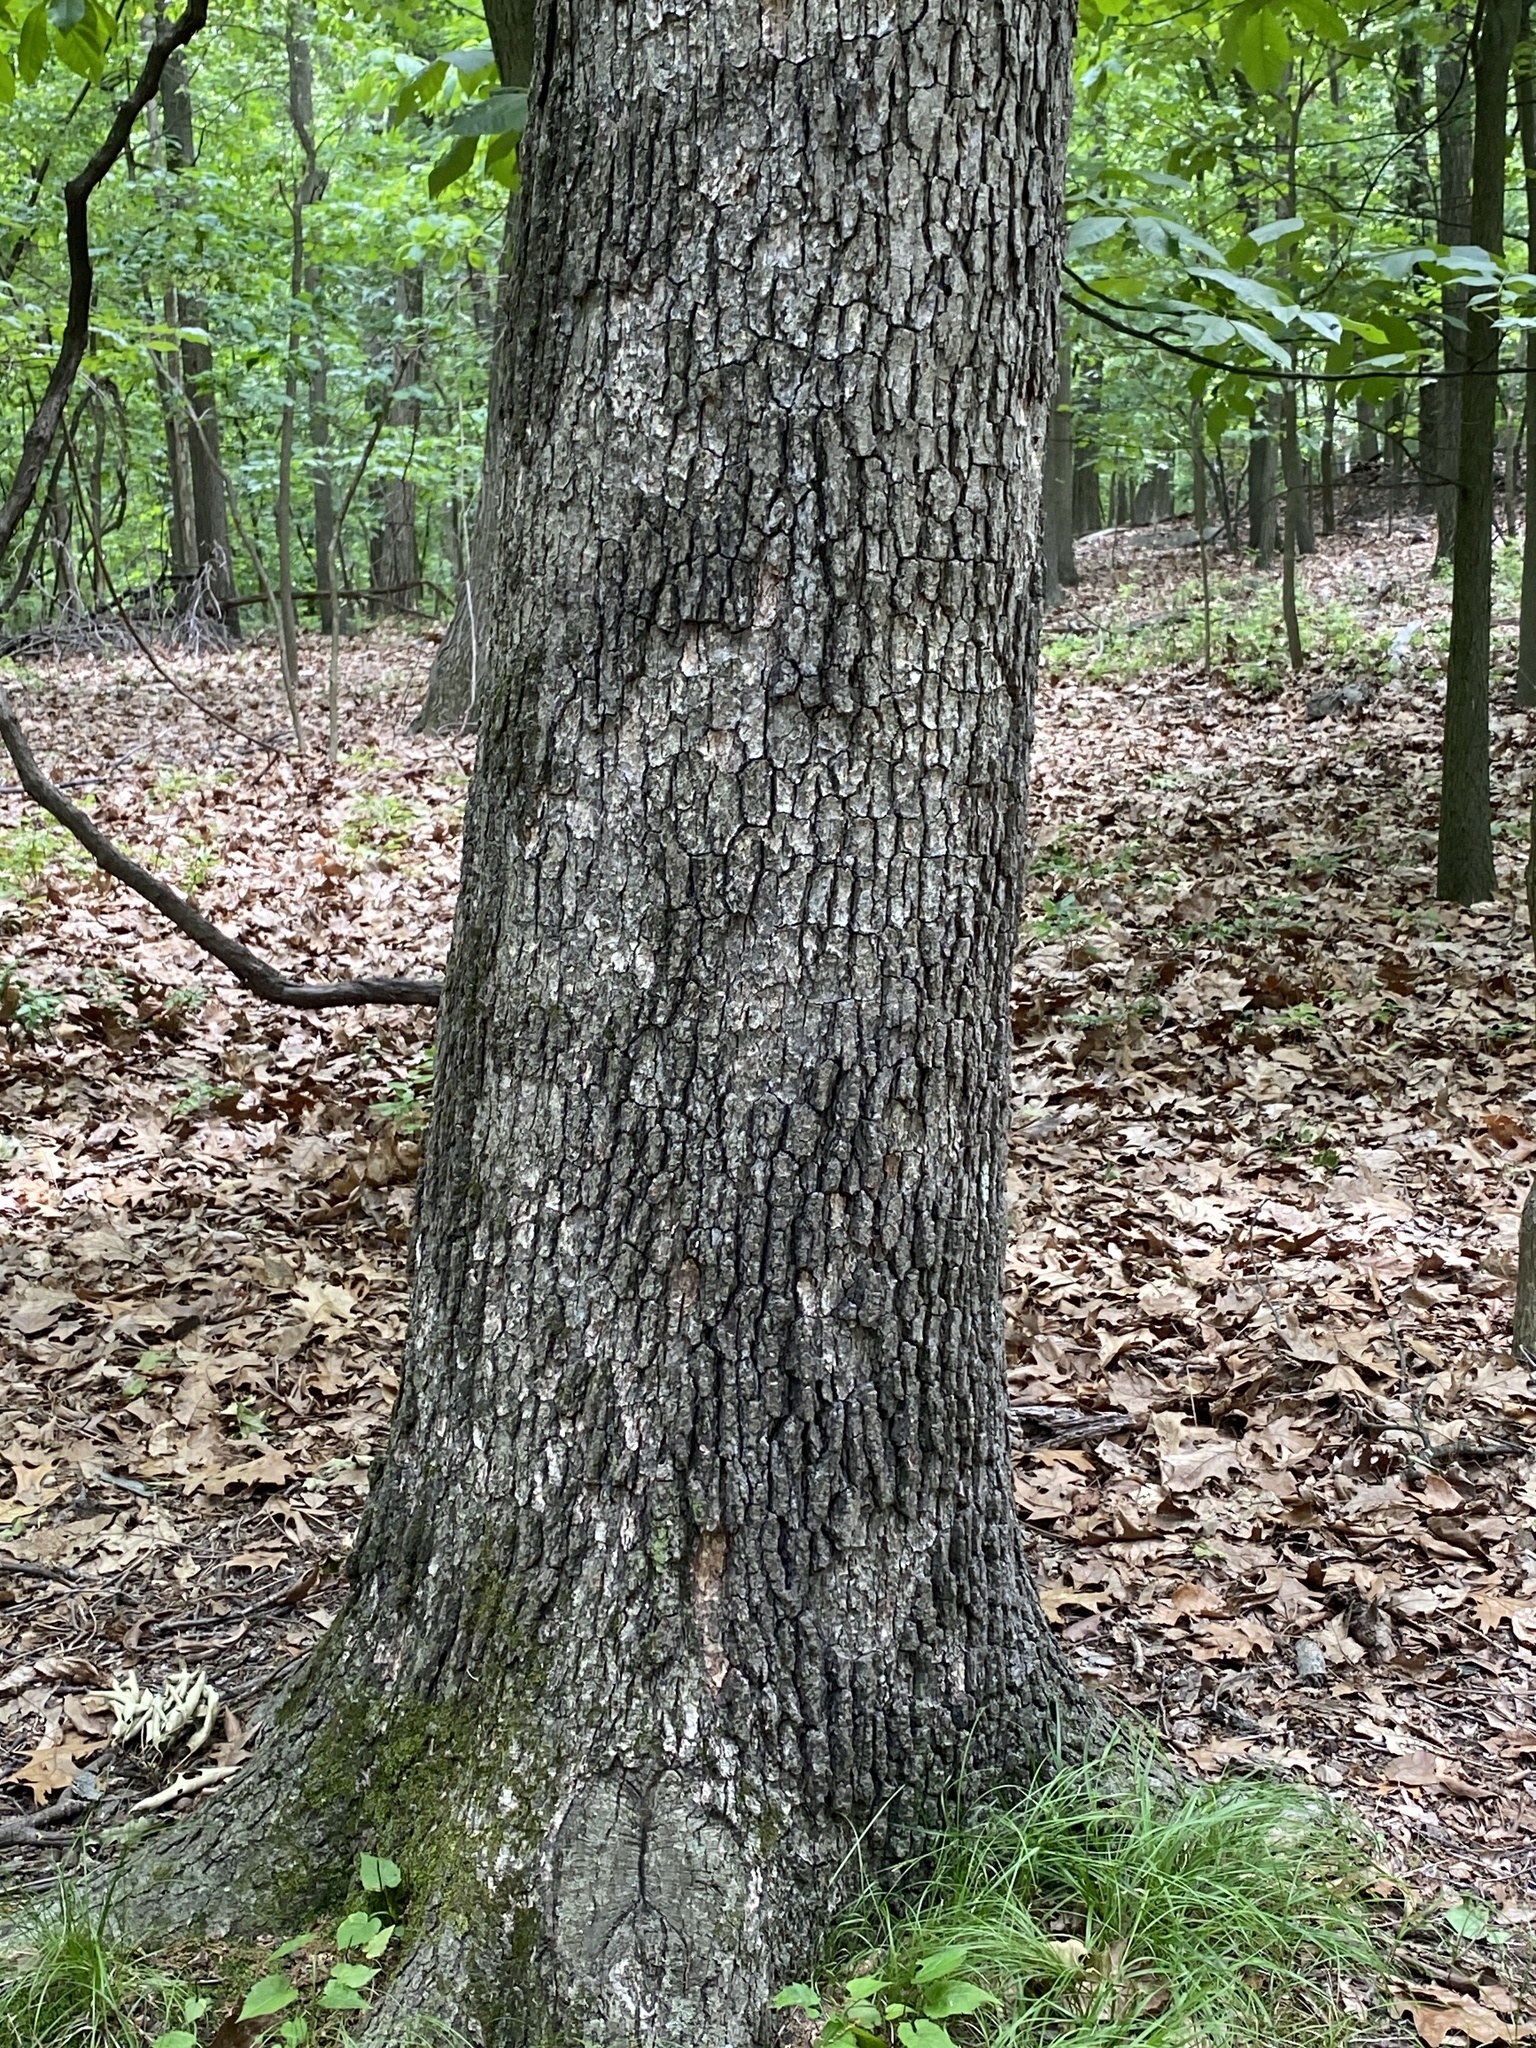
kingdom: Fungi
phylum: Basidiomycota
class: Agaricomycetes
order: Russulales
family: Stereaceae
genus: Acanthophysium
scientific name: Acanthophysium oakesii
